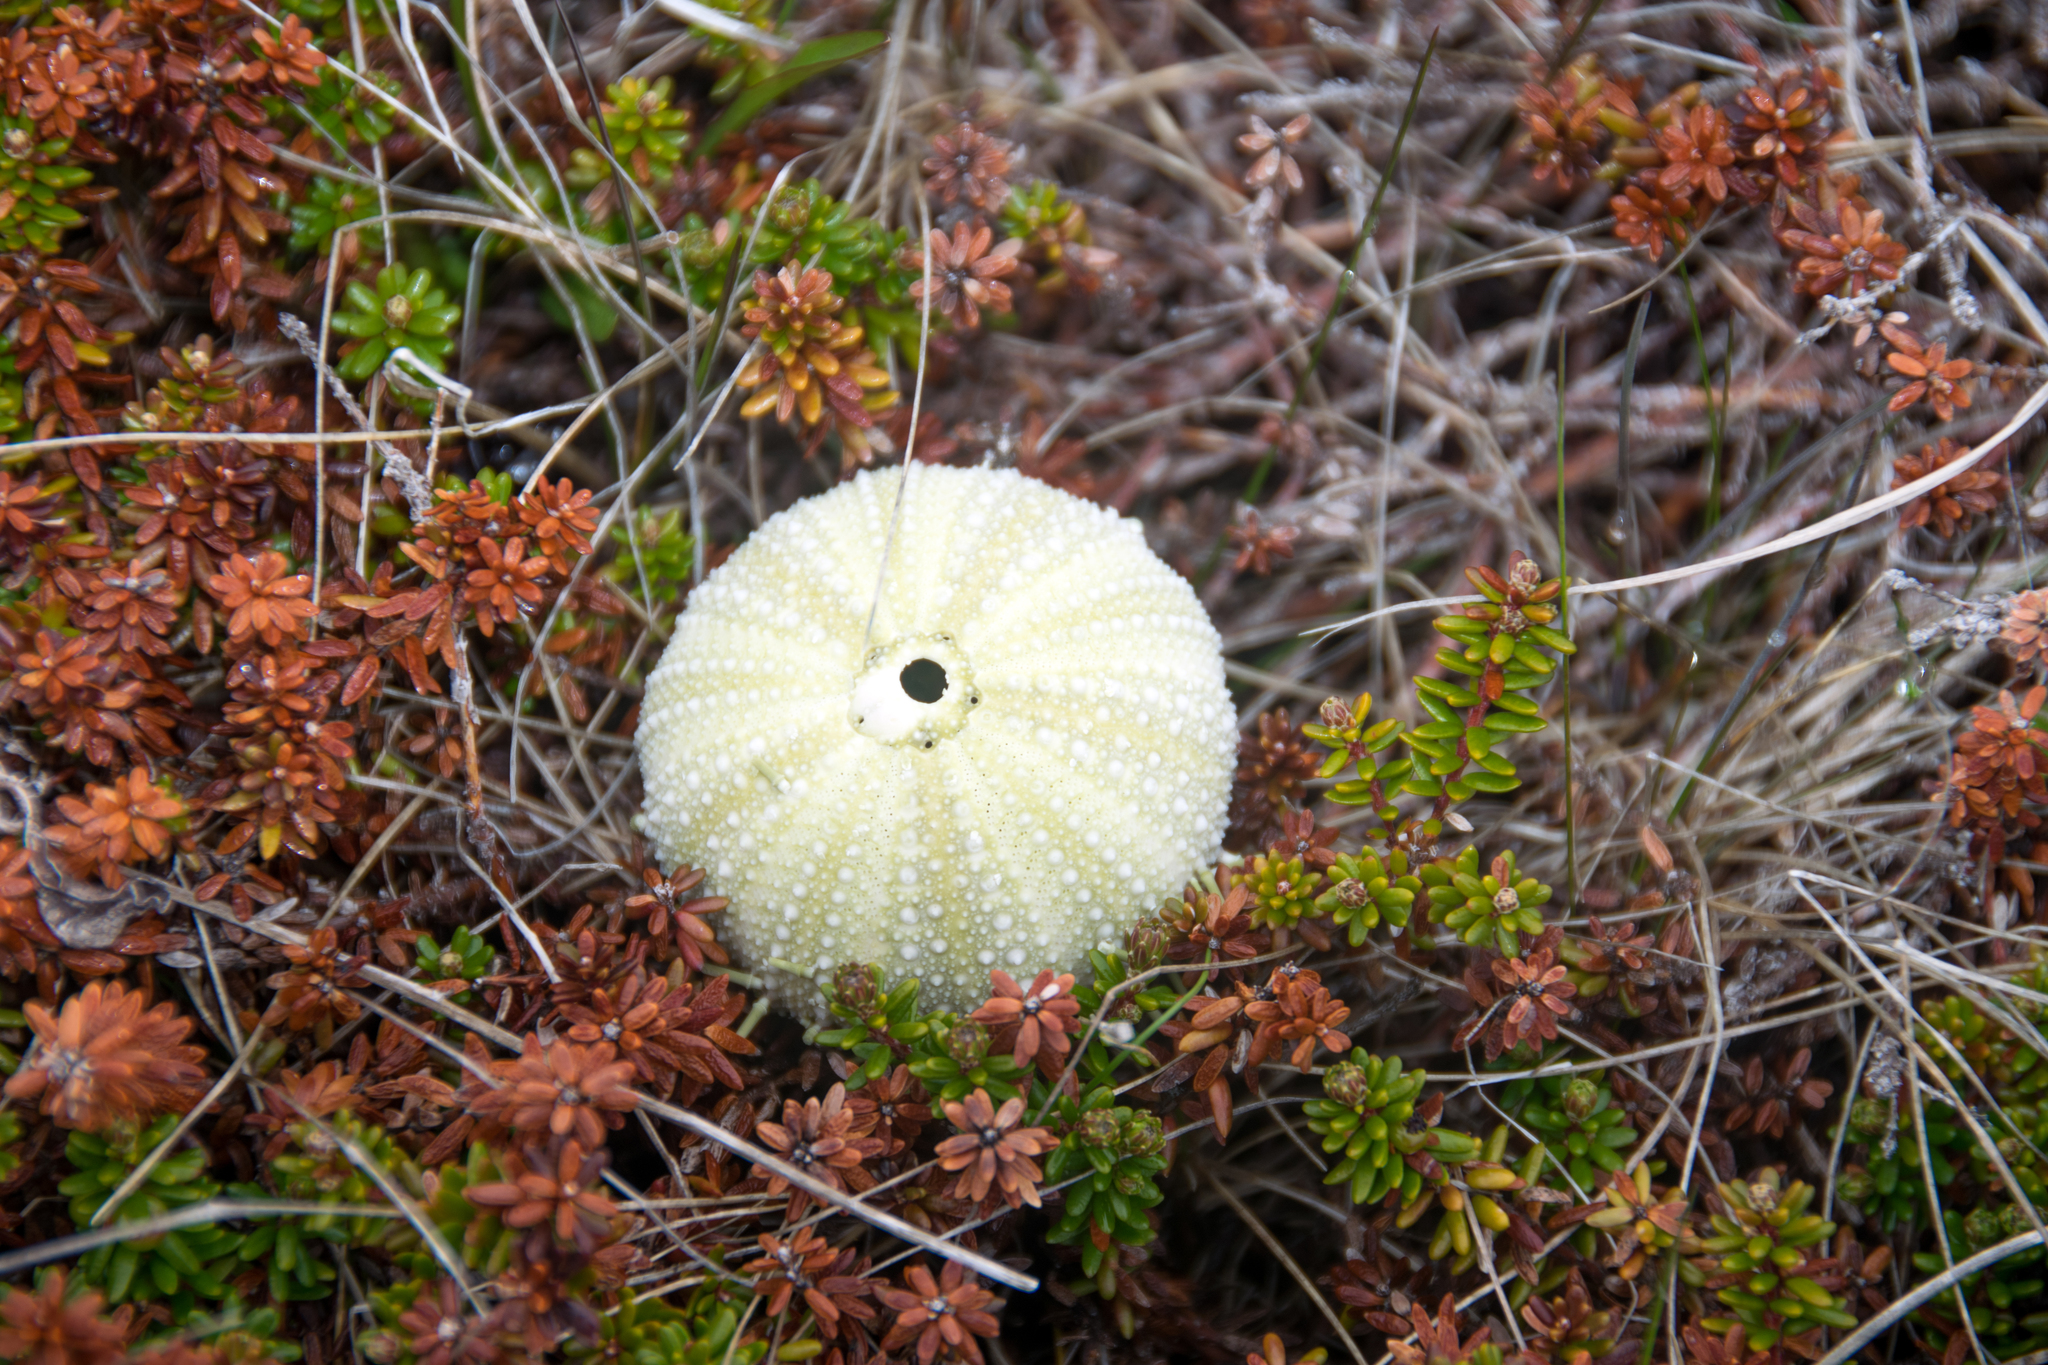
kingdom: Animalia
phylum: Echinodermata
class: Echinoidea
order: Camarodonta
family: Strongylocentrotidae
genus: Strongylocentrotus
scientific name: Strongylocentrotus droebachiensis
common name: Northern sea urchin
